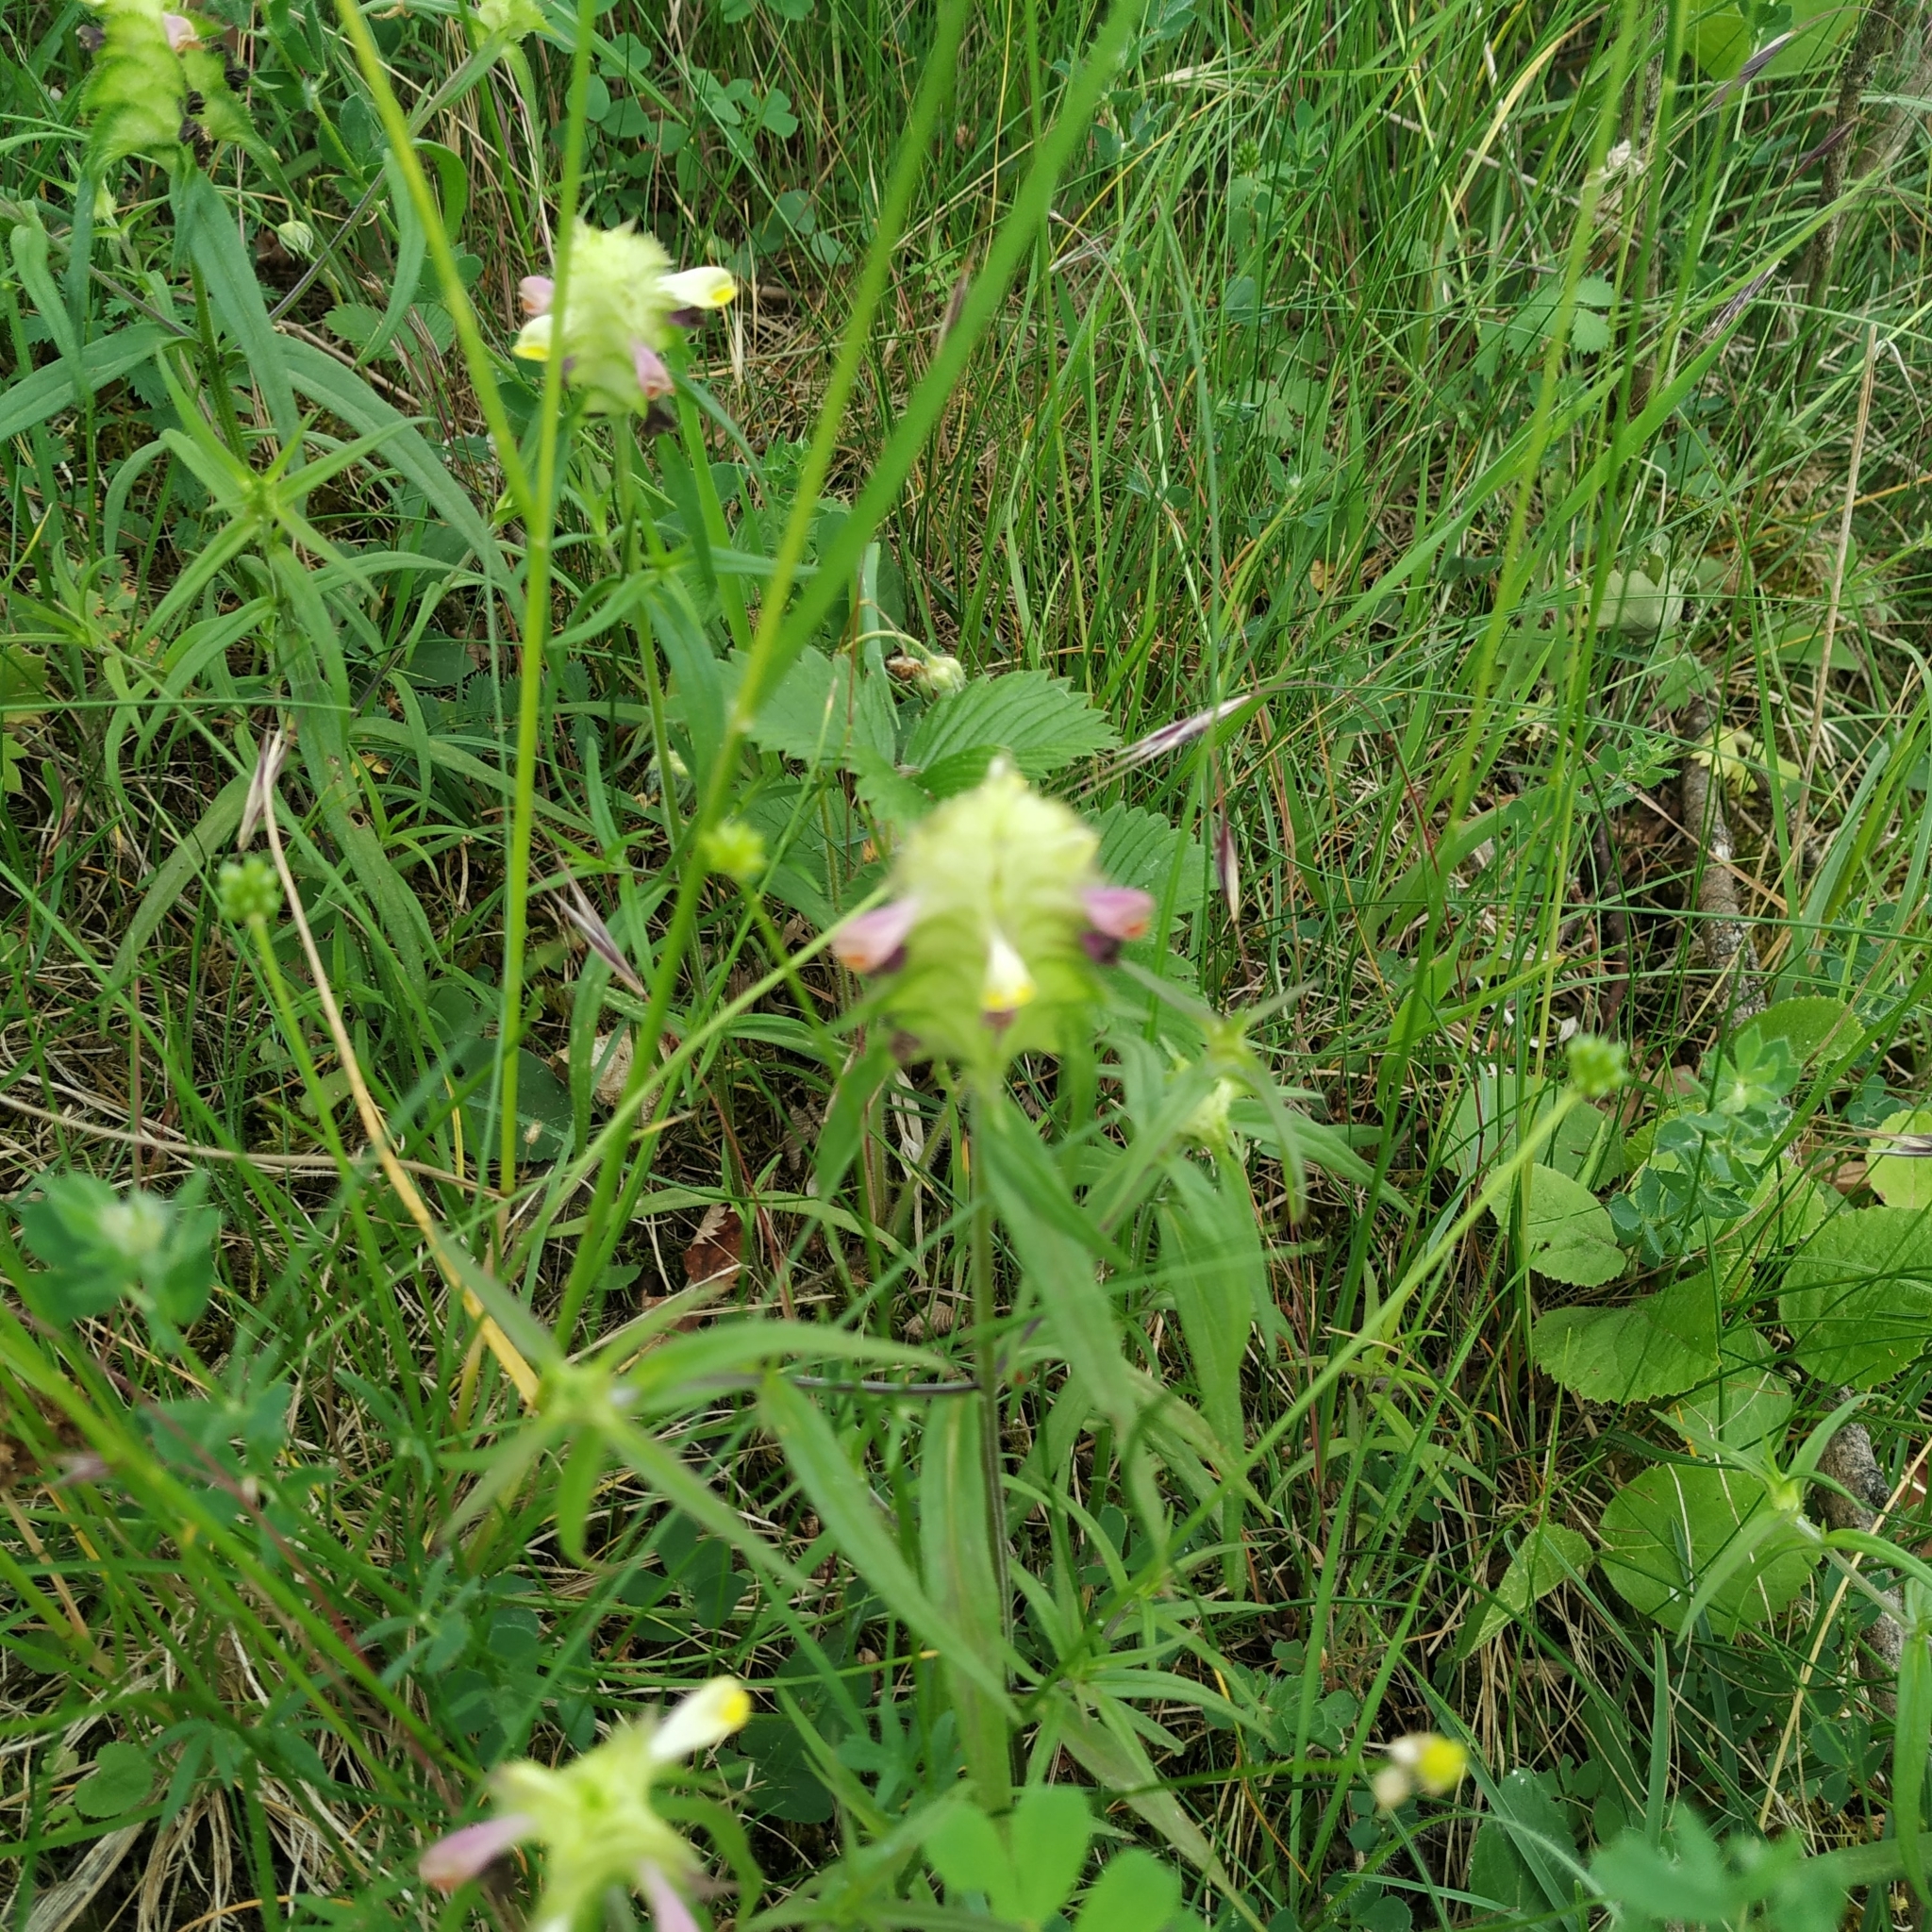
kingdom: Plantae
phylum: Tracheophyta
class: Magnoliopsida
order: Lamiales
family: Orobanchaceae
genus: Melampyrum
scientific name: Melampyrum cristatum
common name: Crested cow-wheat
